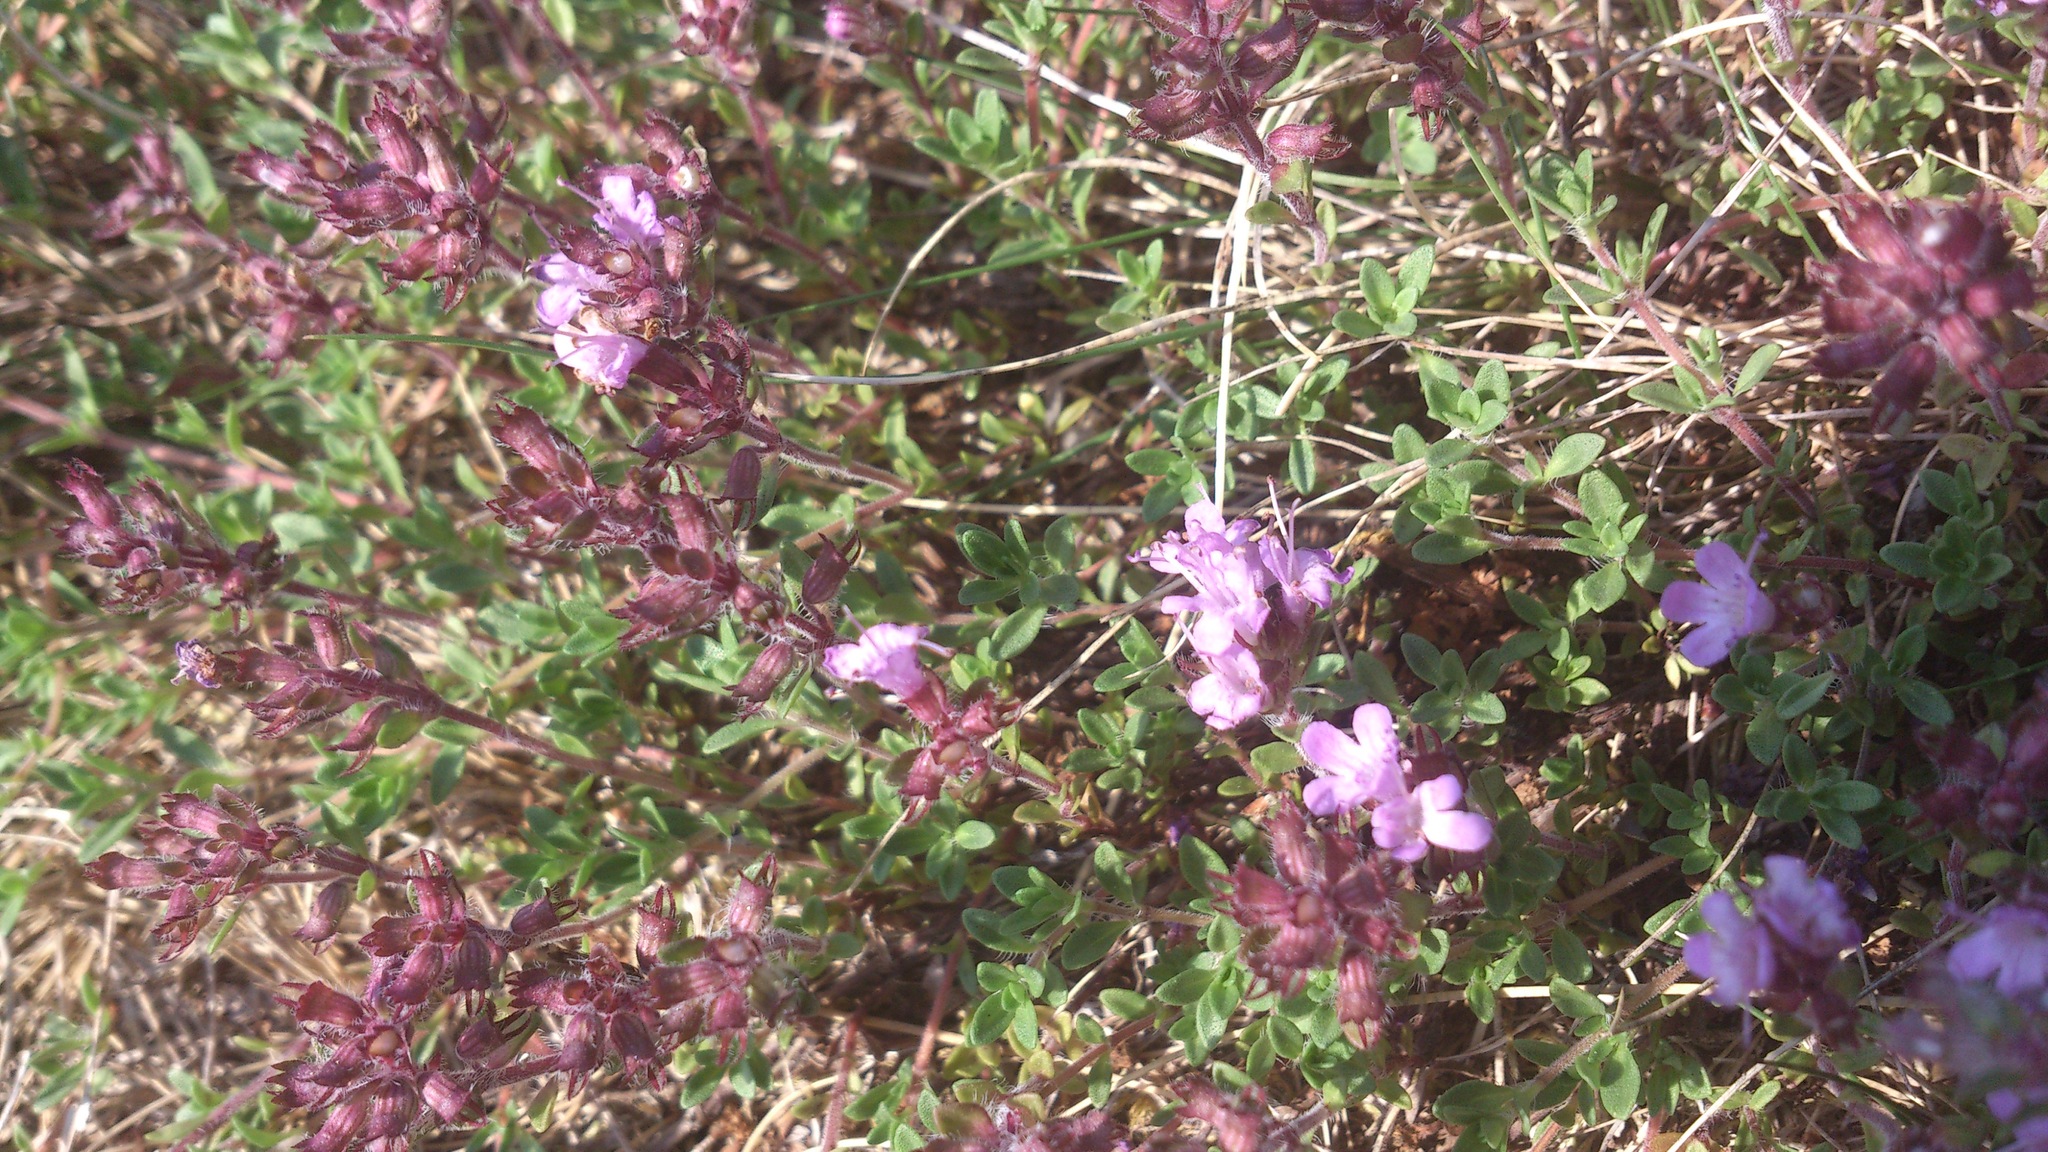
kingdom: Plantae
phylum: Tracheophyta
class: Magnoliopsida
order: Lamiales
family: Lamiaceae
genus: Thymus
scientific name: Thymus serpyllum
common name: Breckland thyme
